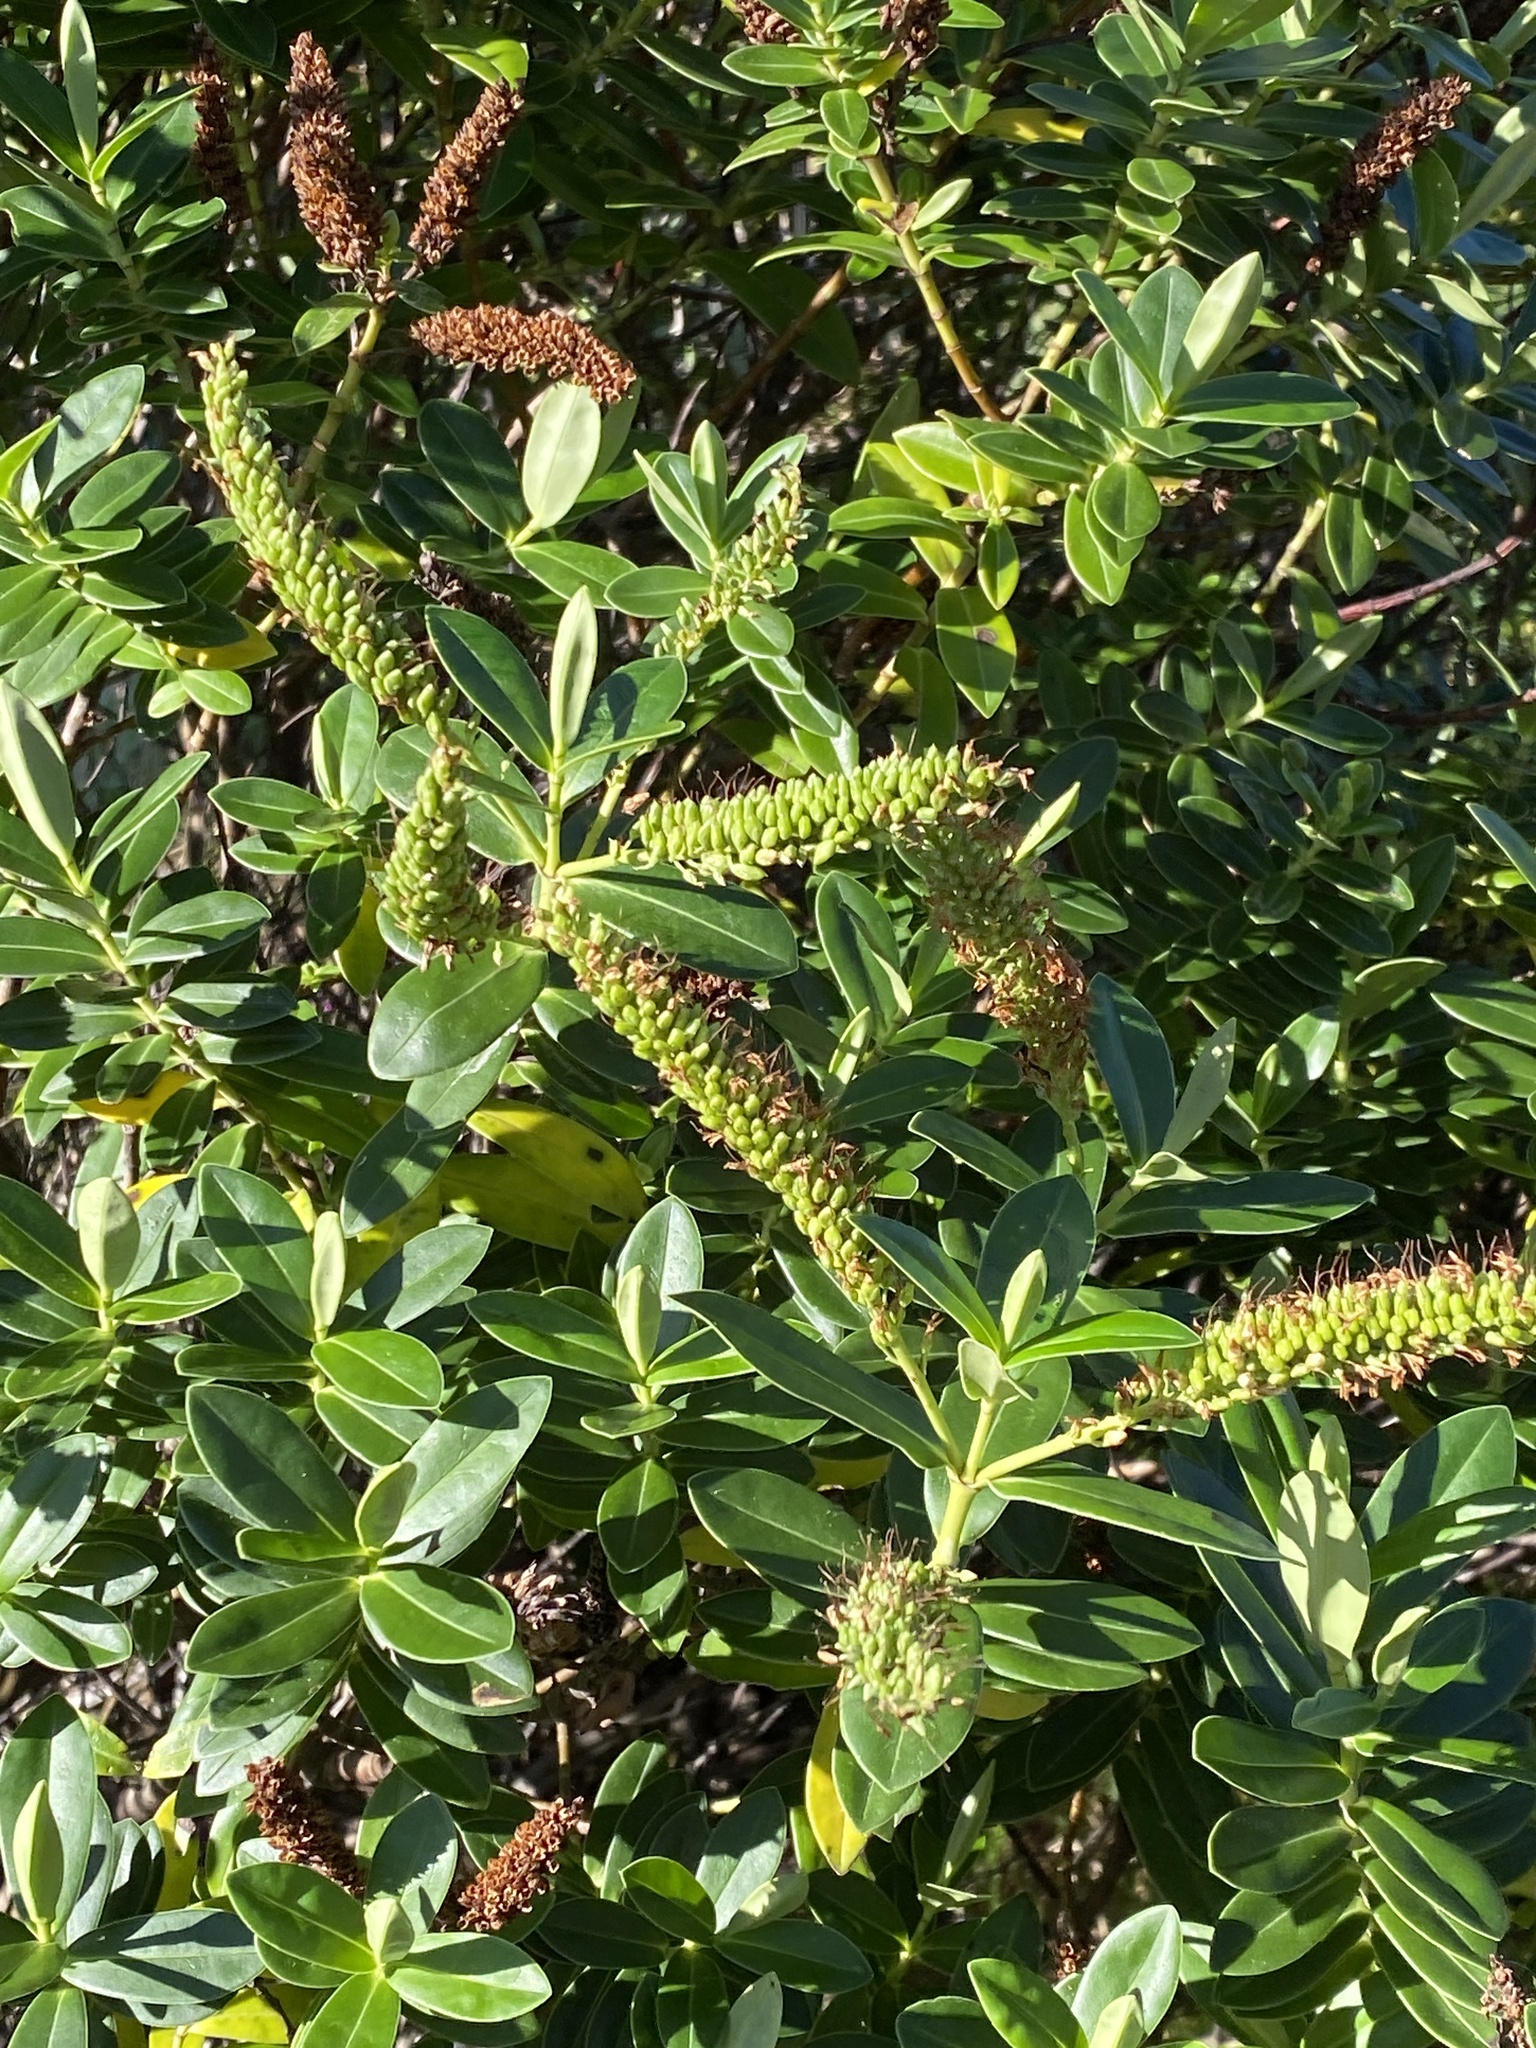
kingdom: Plantae
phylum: Tracheophyta
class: Magnoliopsida
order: Lamiales
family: Plantaginaceae
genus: Veronica
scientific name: Veronica stricta
